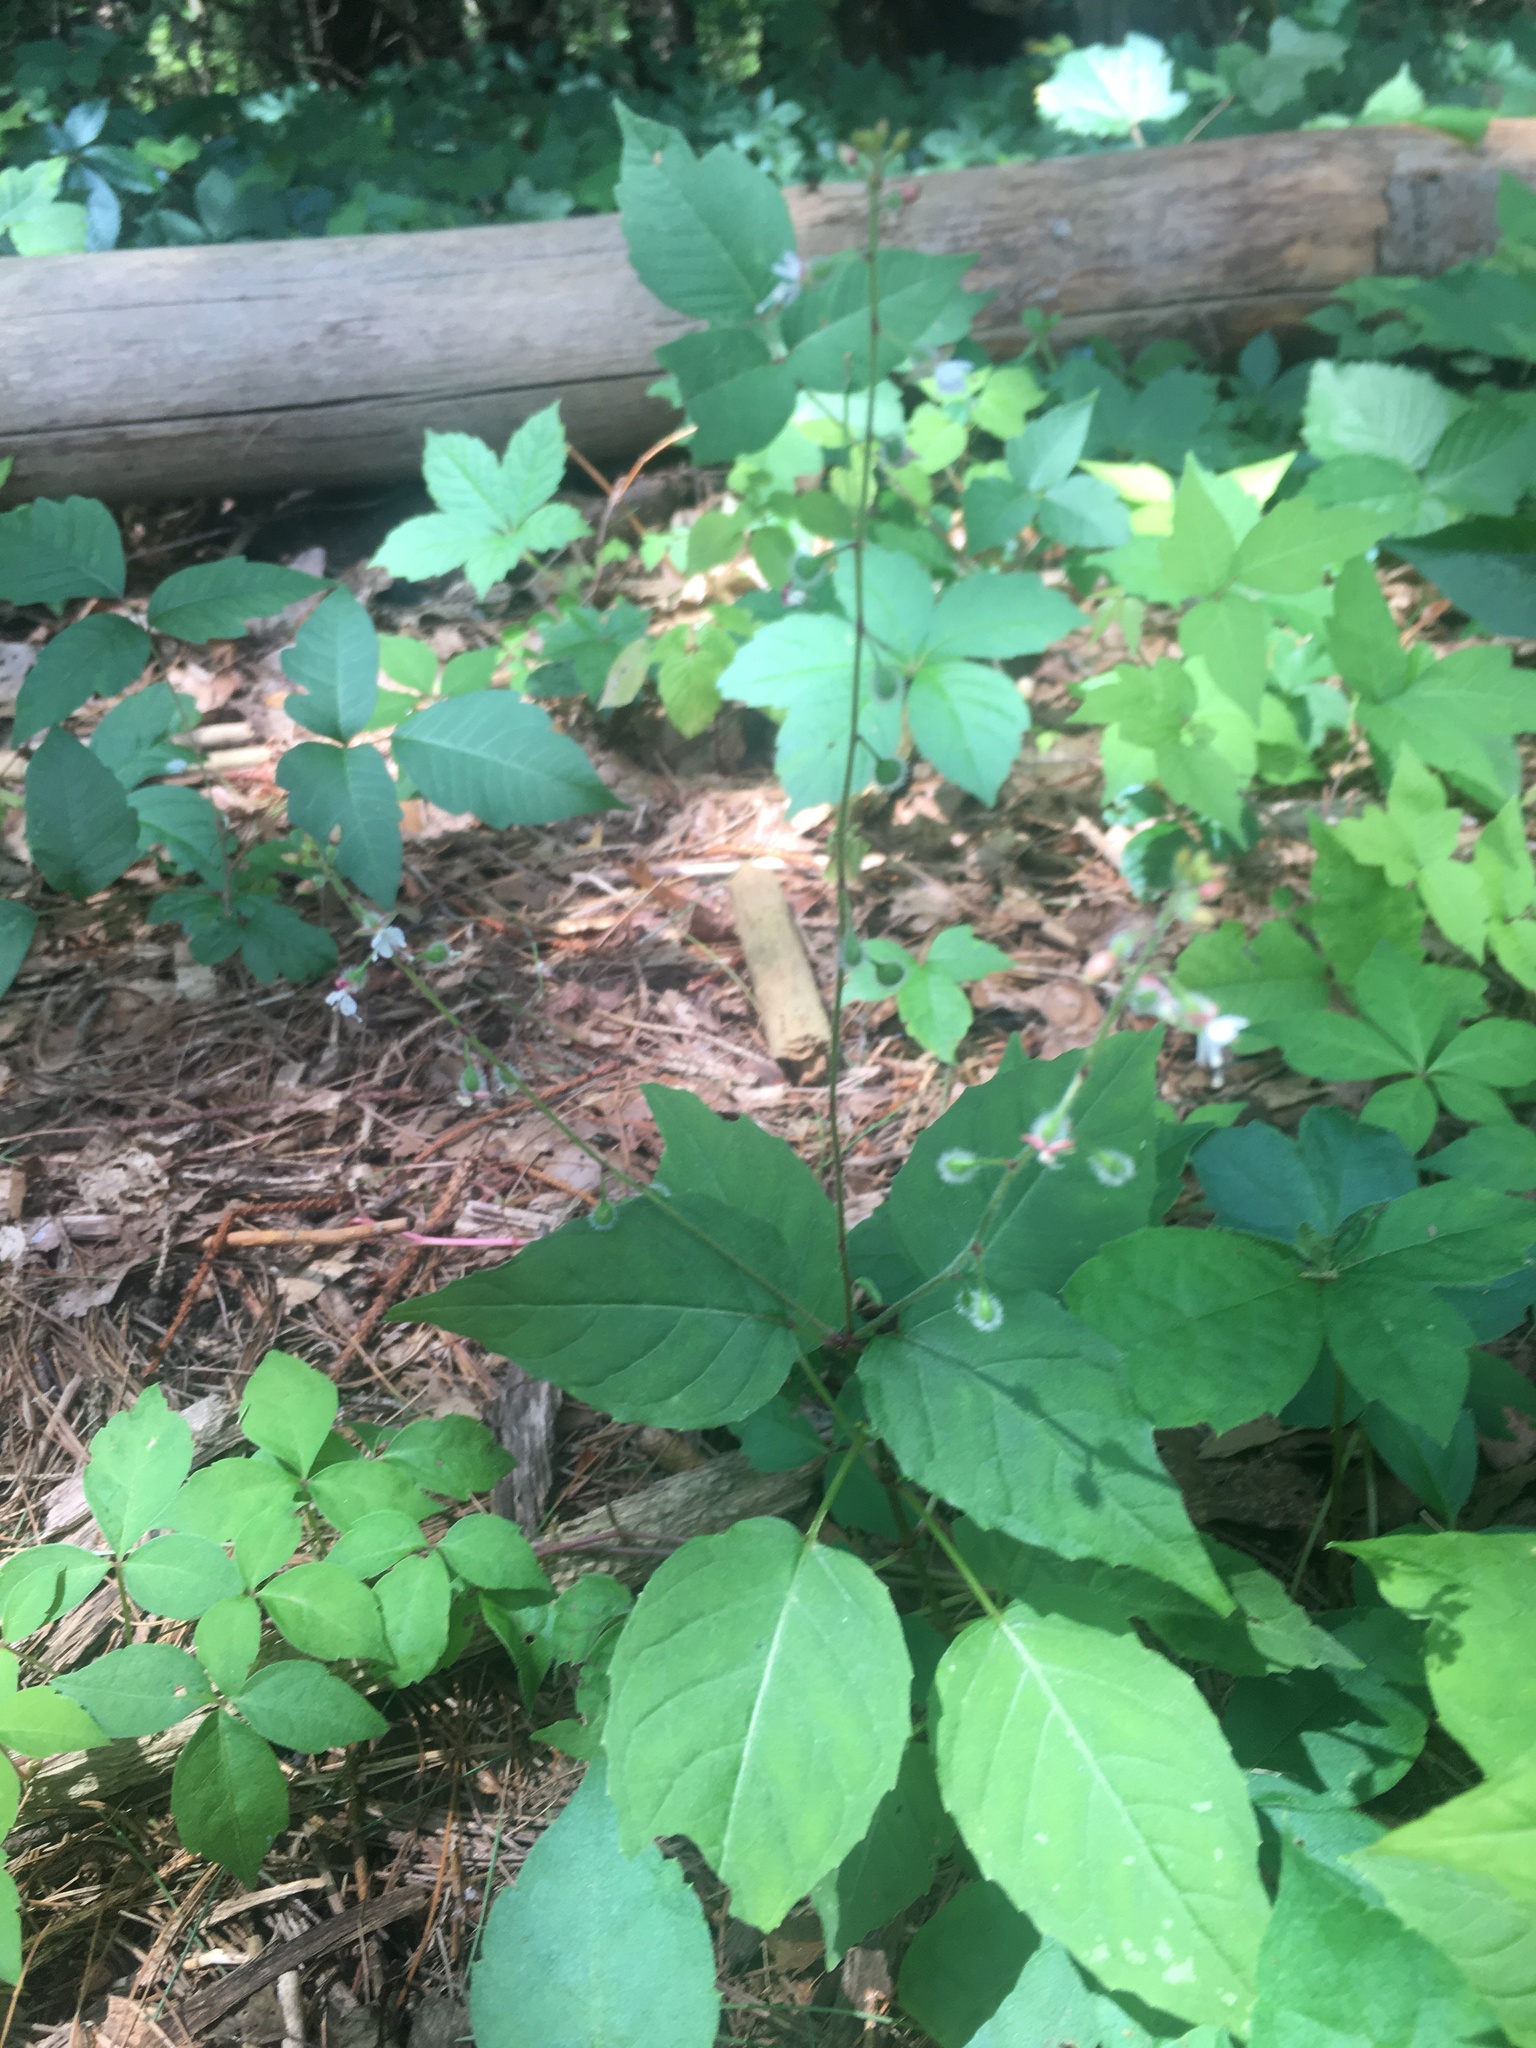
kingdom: Plantae
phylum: Tracheophyta
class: Magnoliopsida
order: Myrtales
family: Onagraceae
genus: Circaea
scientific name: Circaea canadensis
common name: Broad-leaved enchanter's nightshade
